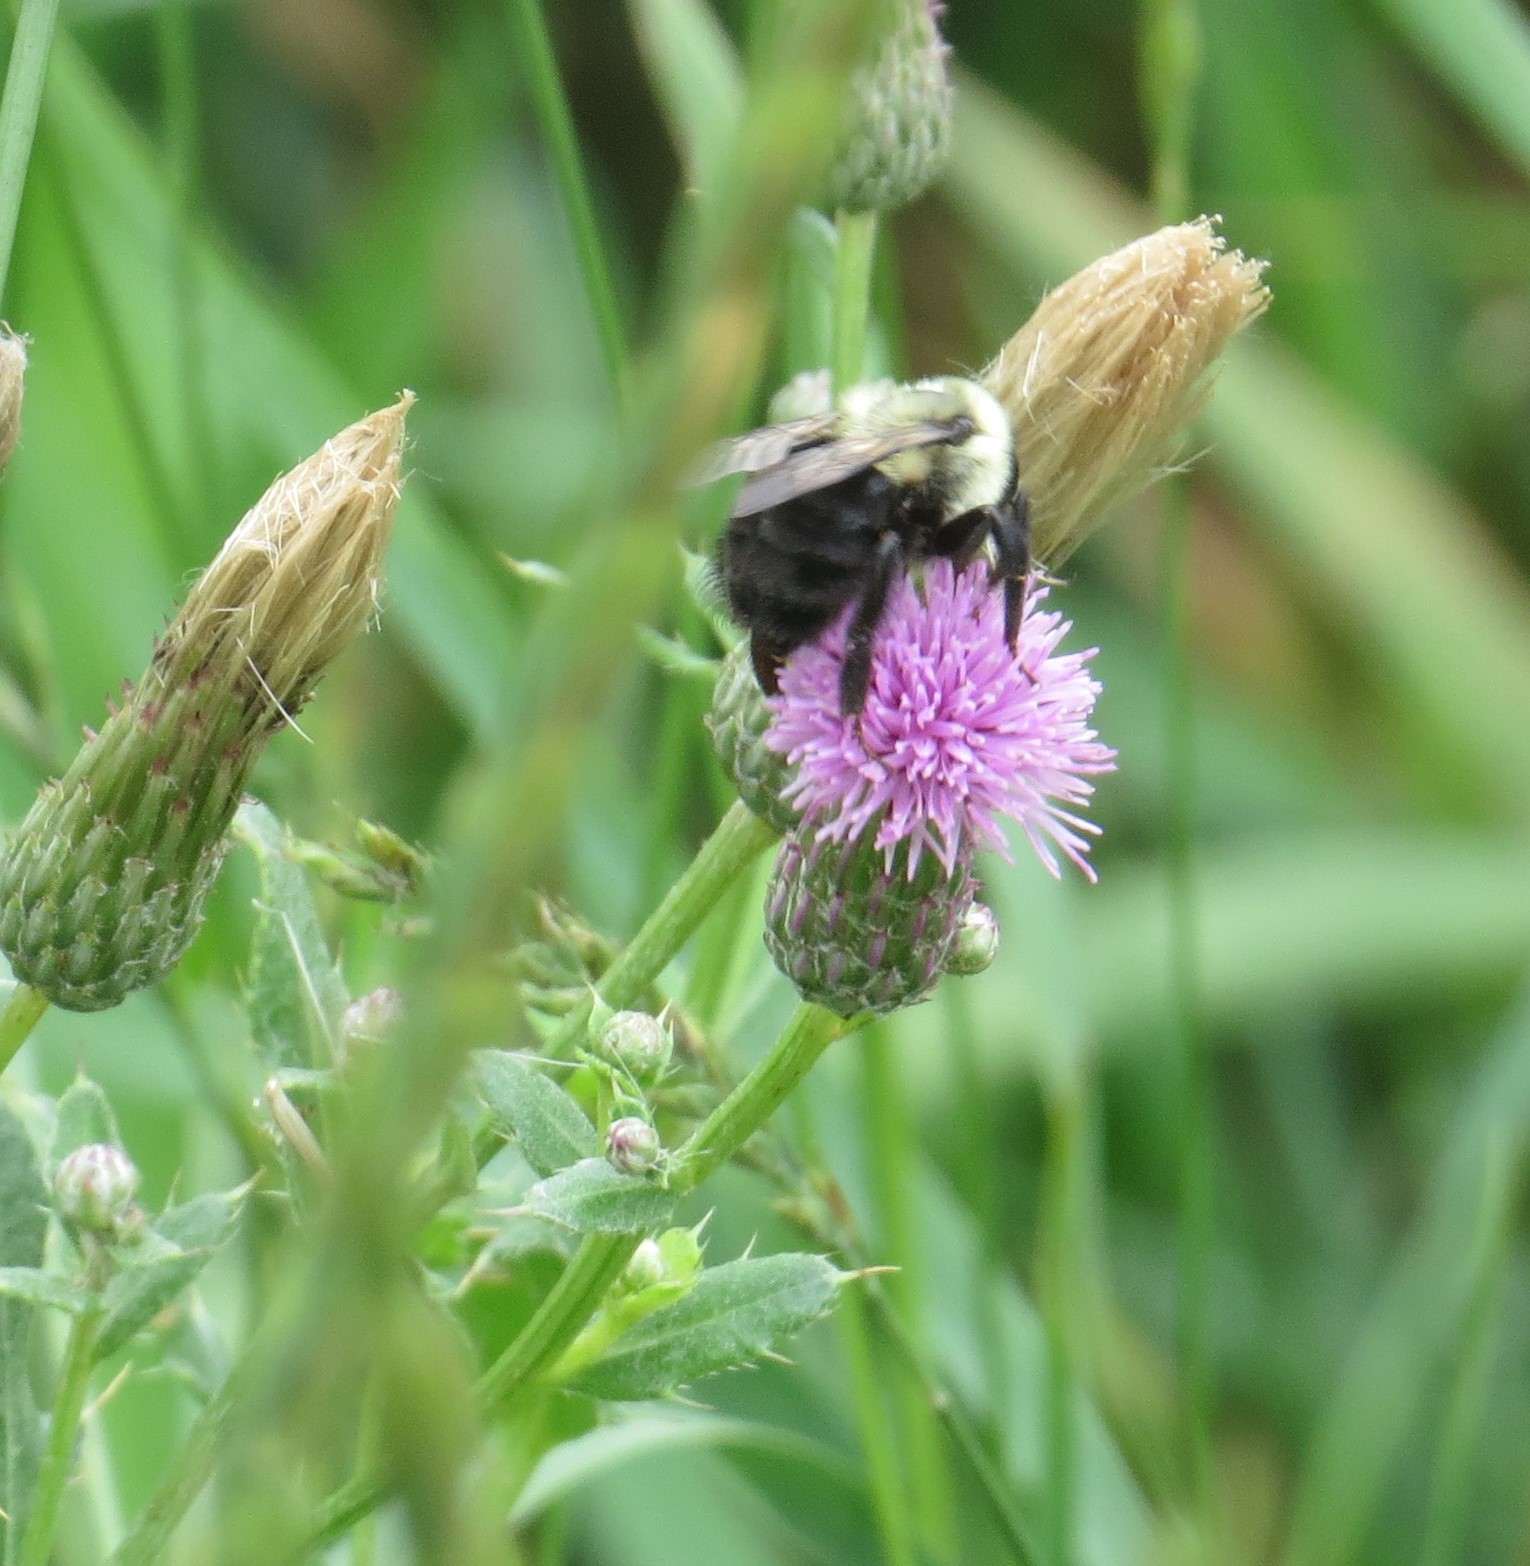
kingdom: Animalia
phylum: Arthropoda
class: Insecta
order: Hymenoptera
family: Apidae
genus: Bombus
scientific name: Bombus impatiens
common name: Common eastern bumble bee
